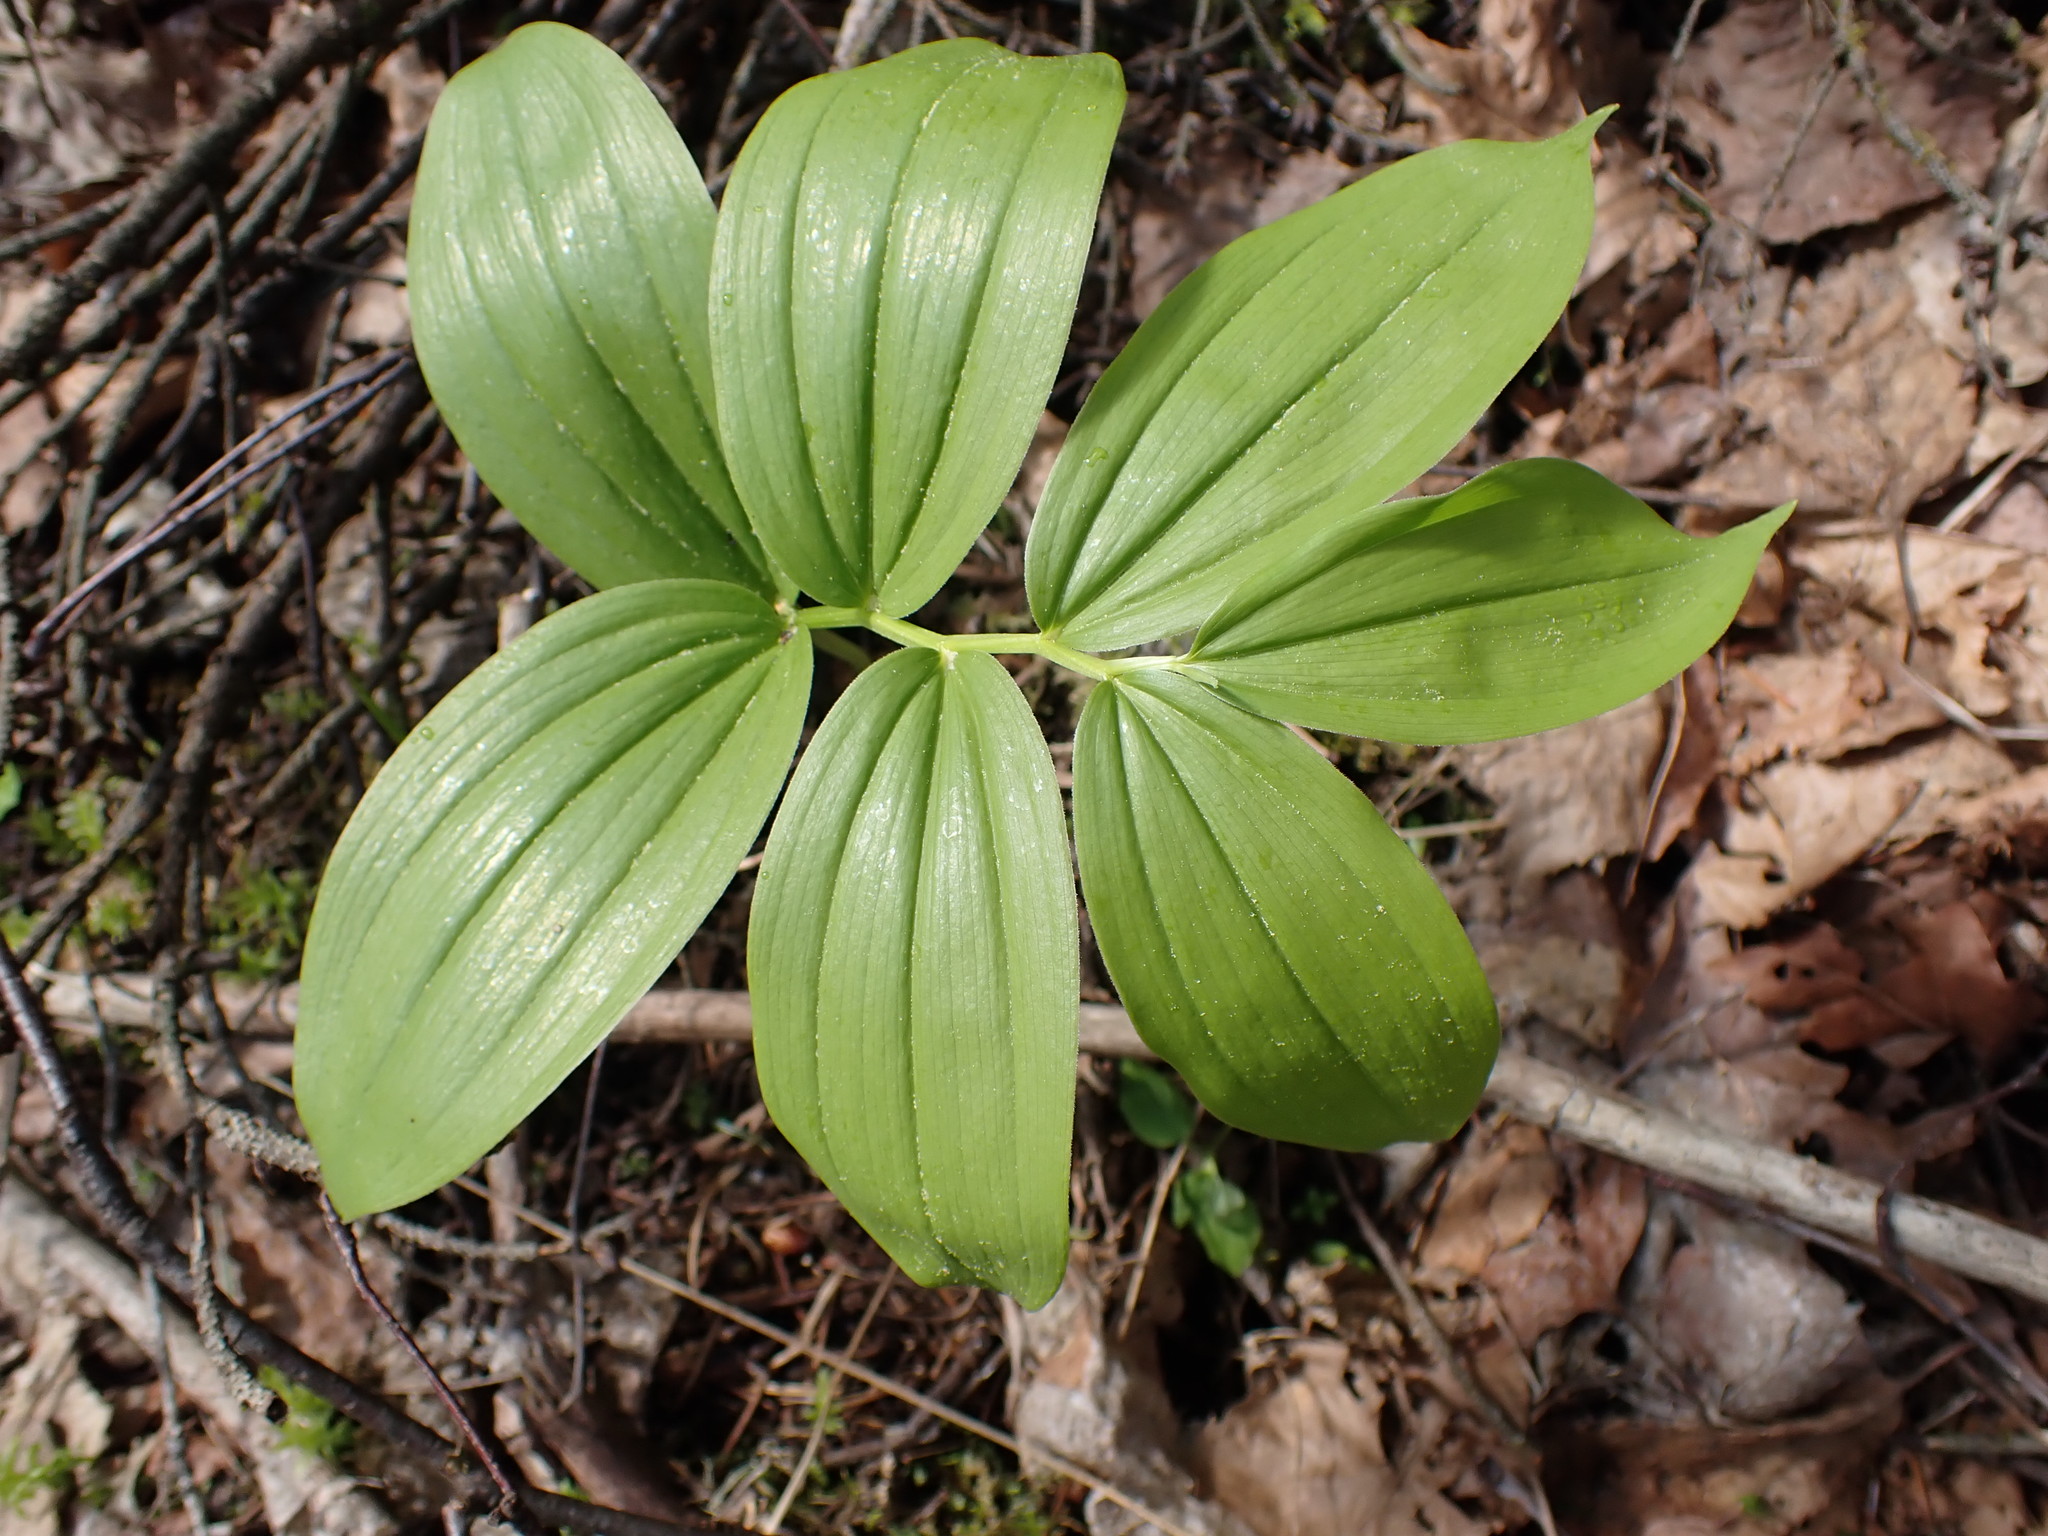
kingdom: Plantae
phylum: Tracheophyta
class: Liliopsida
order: Asparagales
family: Asparagaceae
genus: Maianthemum
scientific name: Maianthemum racemosum
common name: False spikenard
